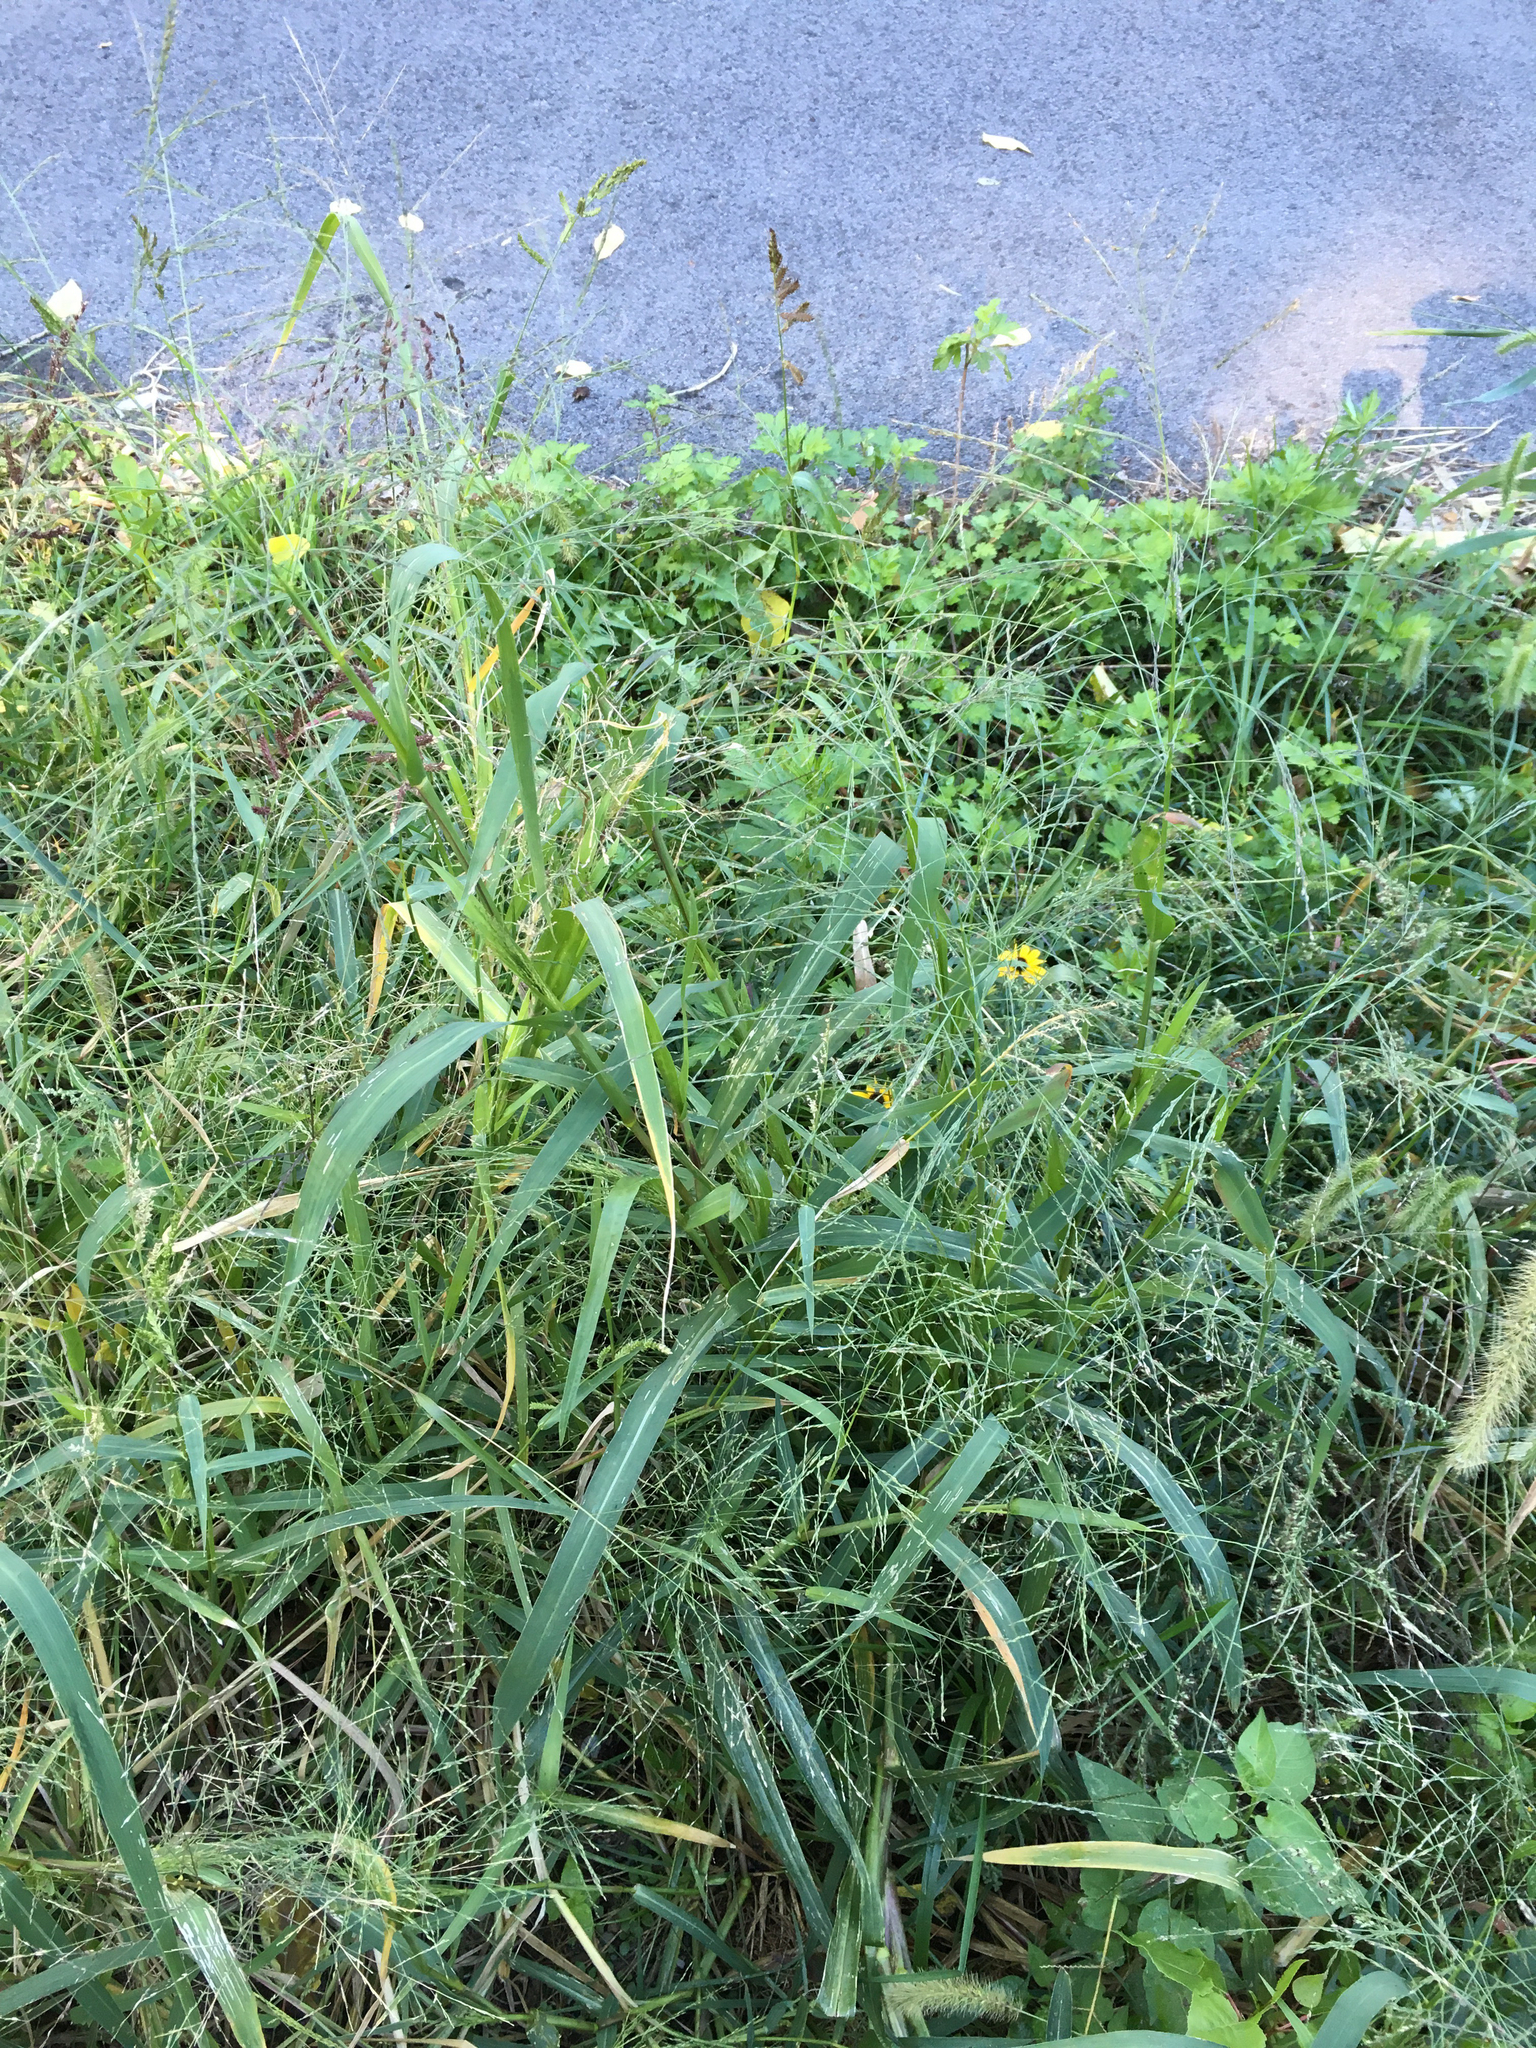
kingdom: Plantae
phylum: Tracheophyta
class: Liliopsida
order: Poales
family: Poaceae
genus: Panicum
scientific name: Panicum dichotomiflorum
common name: Autumn millet
